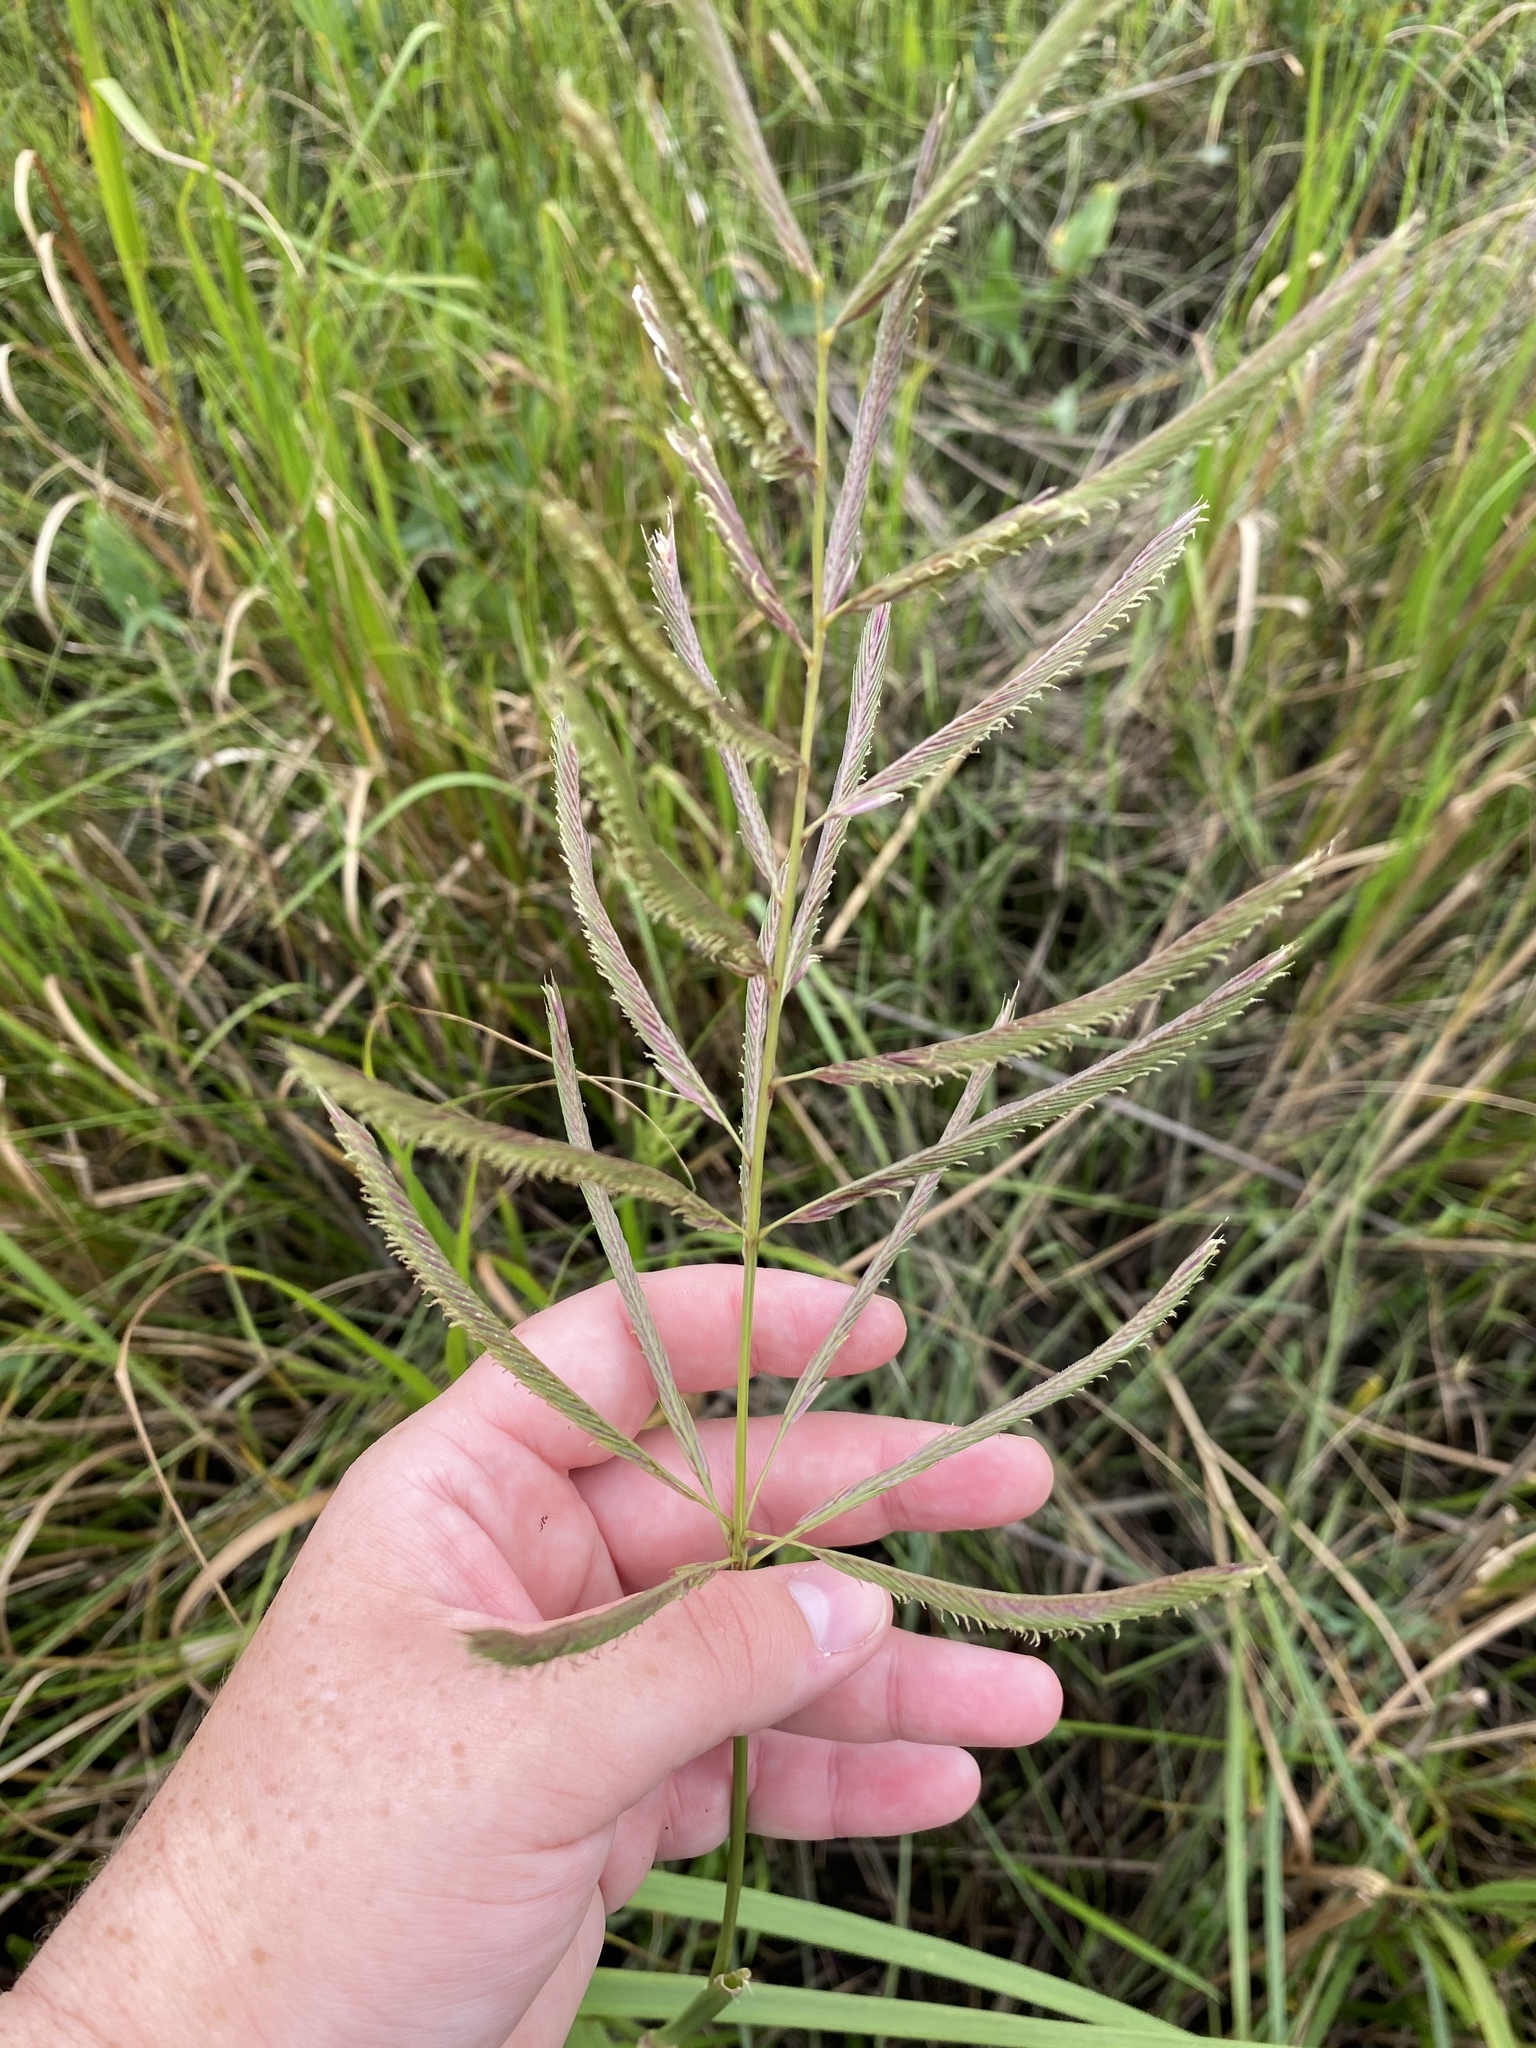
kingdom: Plantae
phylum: Tracheophyta
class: Liliopsida
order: Poales
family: Poaceae
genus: Sporobolus
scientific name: Sporobolus cynosuroides
